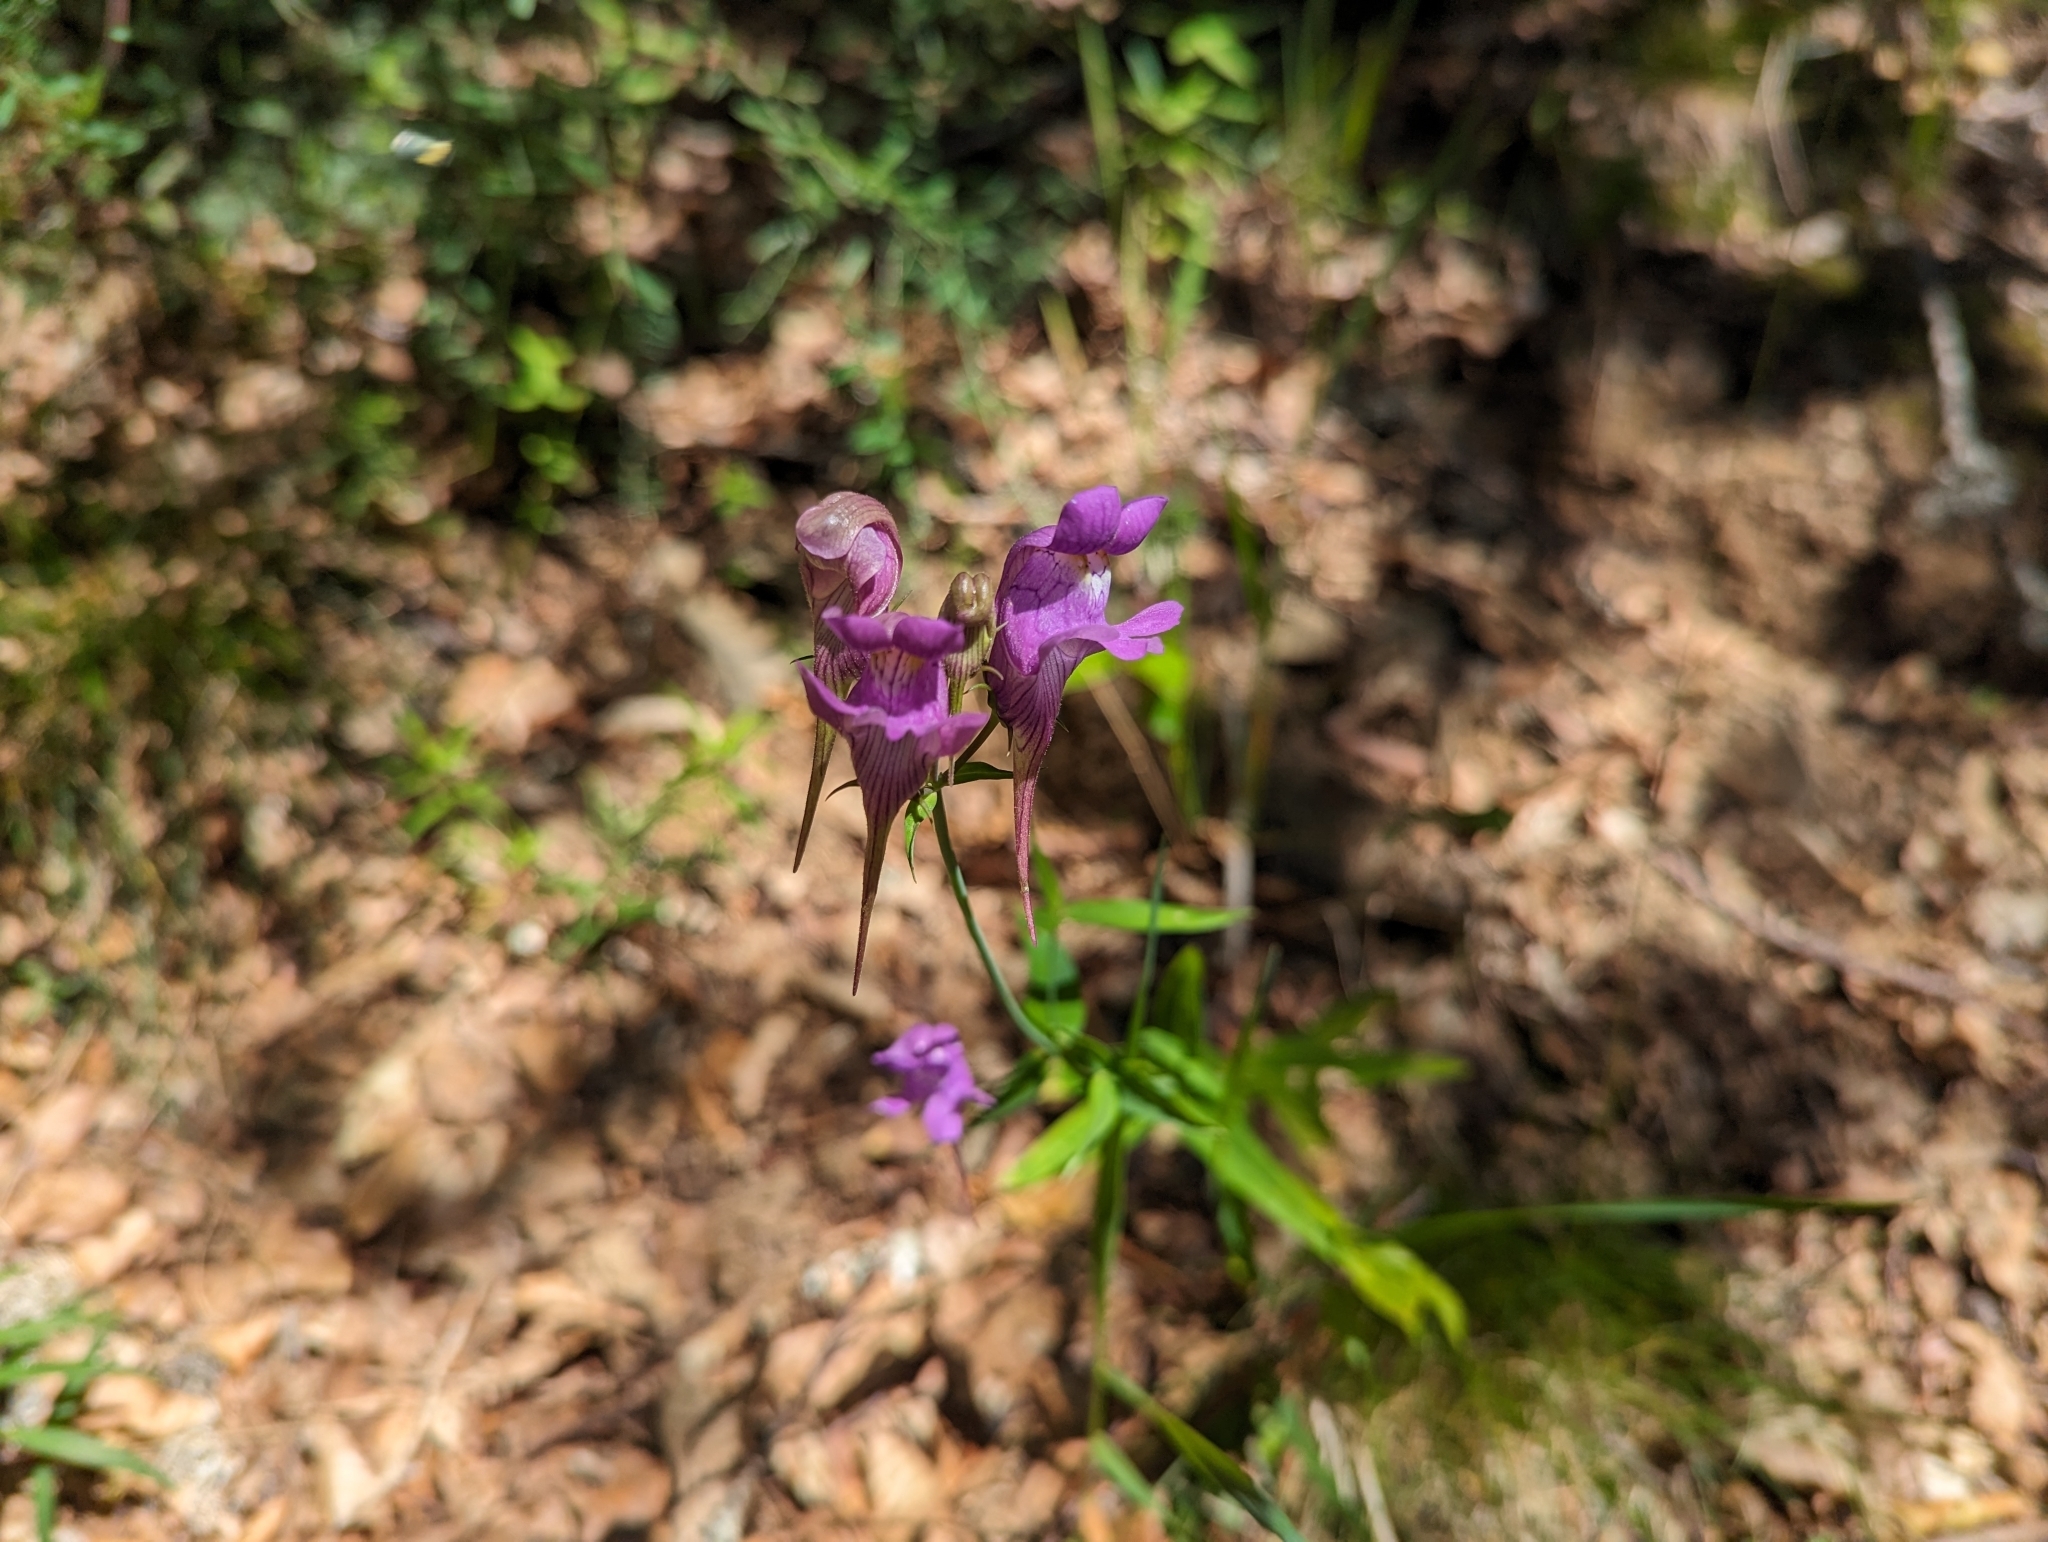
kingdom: Plantae
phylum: Tracheophyta
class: Magnoliopsida
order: Lamiales
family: Plantaginaceae
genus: Linaria
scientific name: Linaria triornithophora
